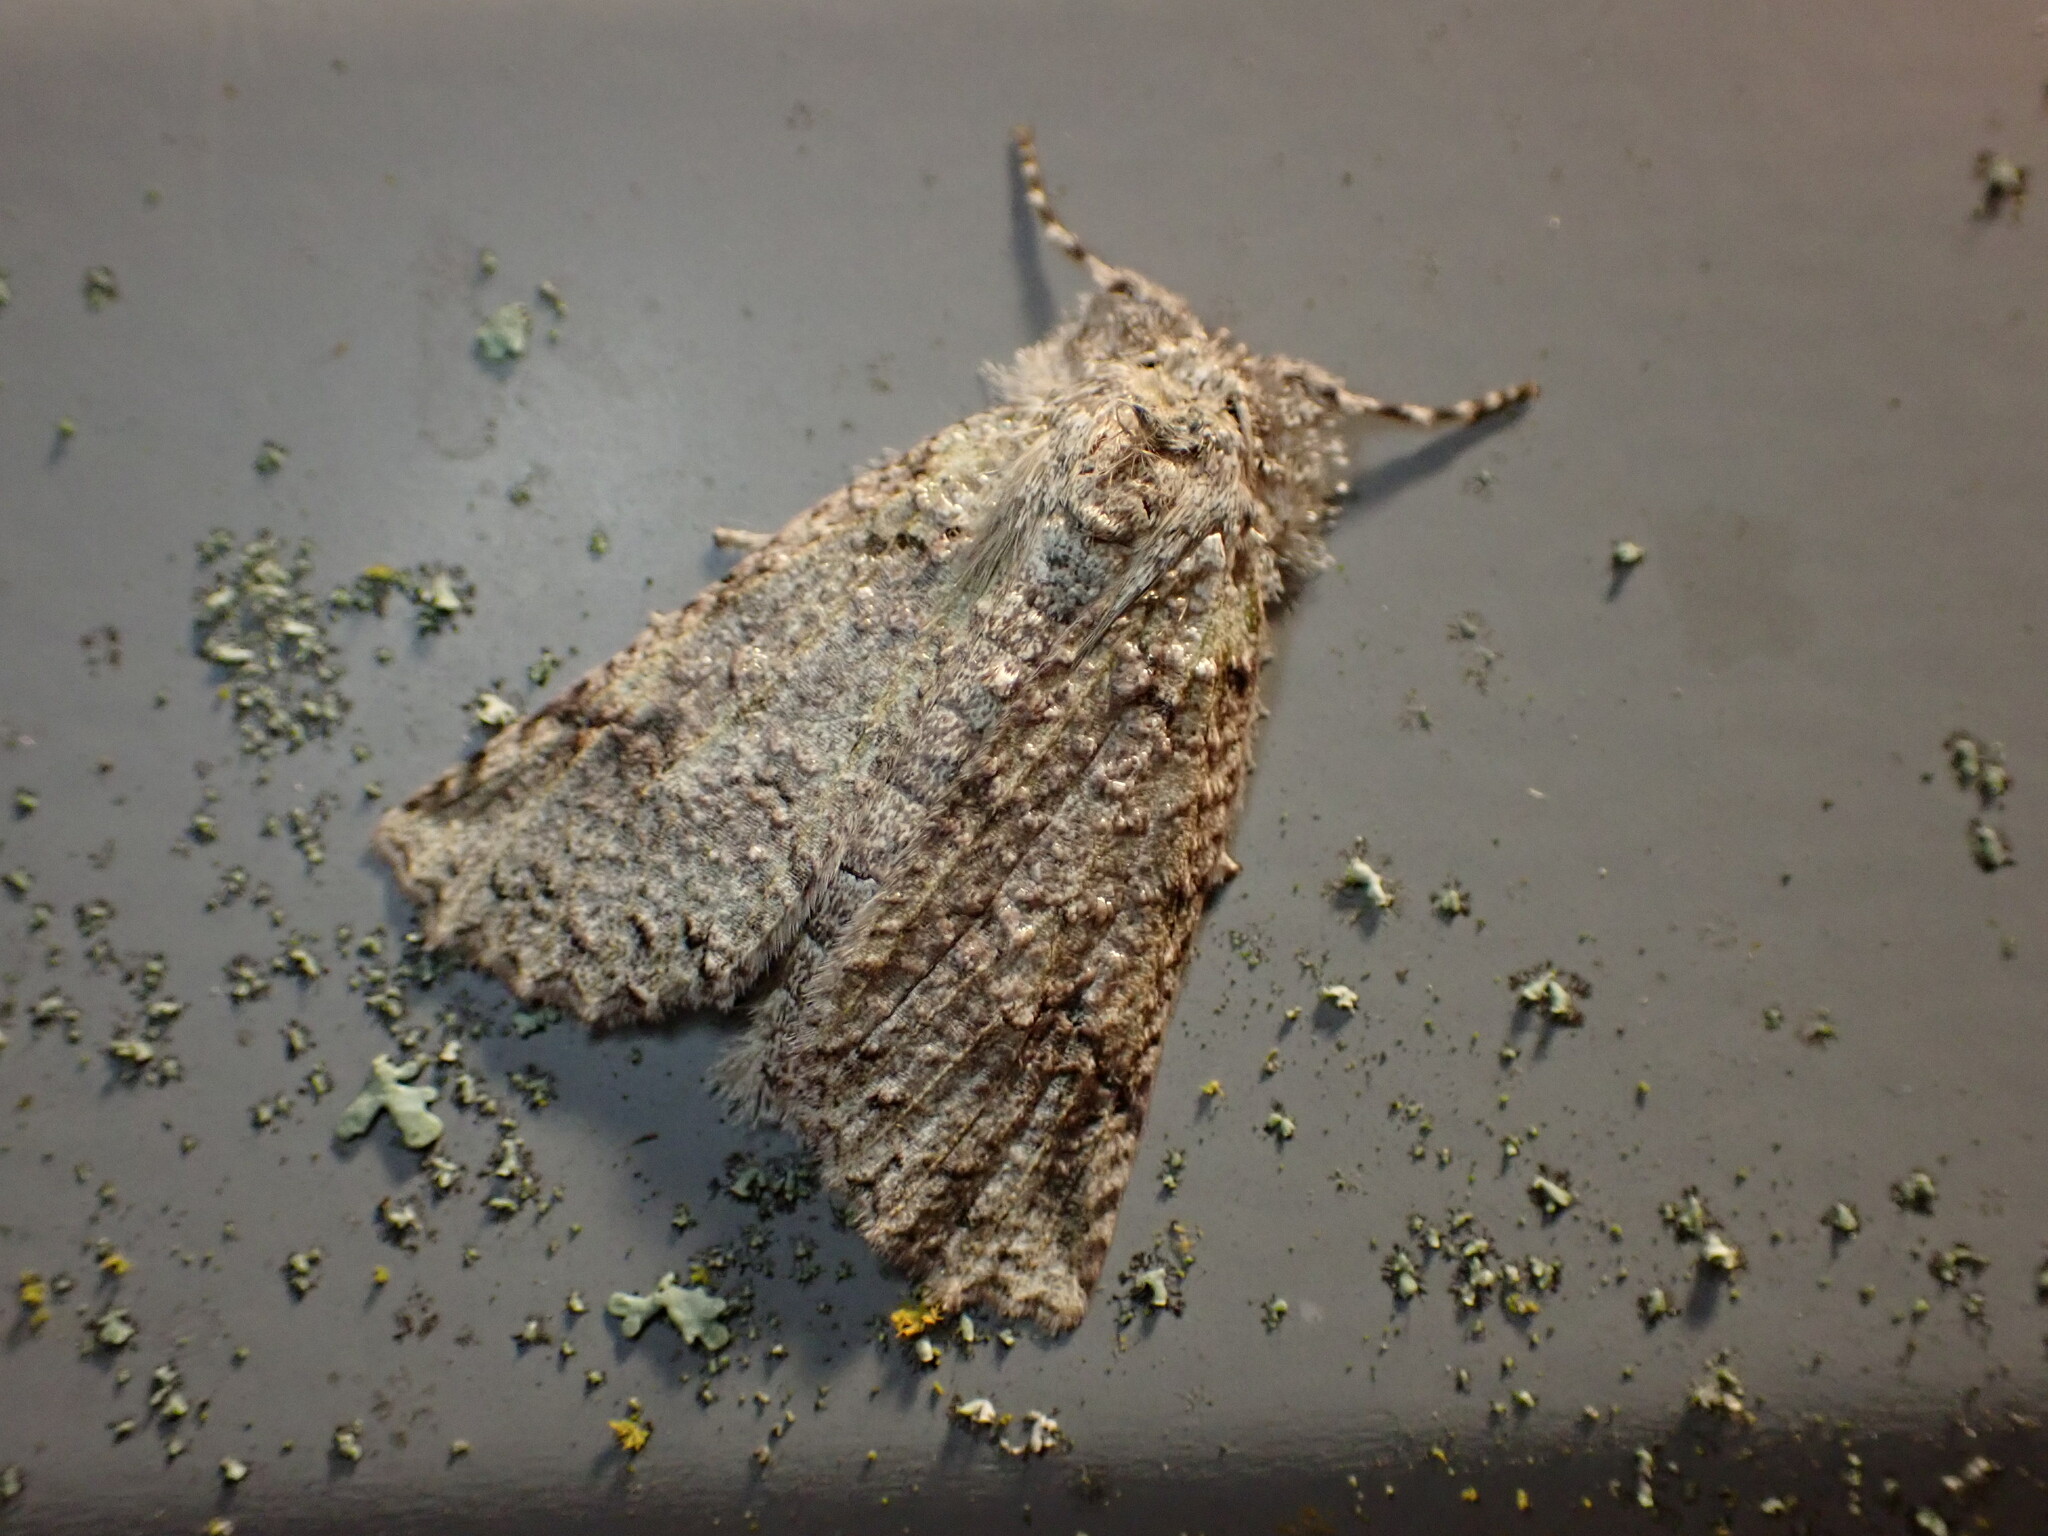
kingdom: Animalia
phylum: Arthropoda
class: Insecta
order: Lepidoptera
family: Geometridae
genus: Declana
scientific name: Declana floccosa
